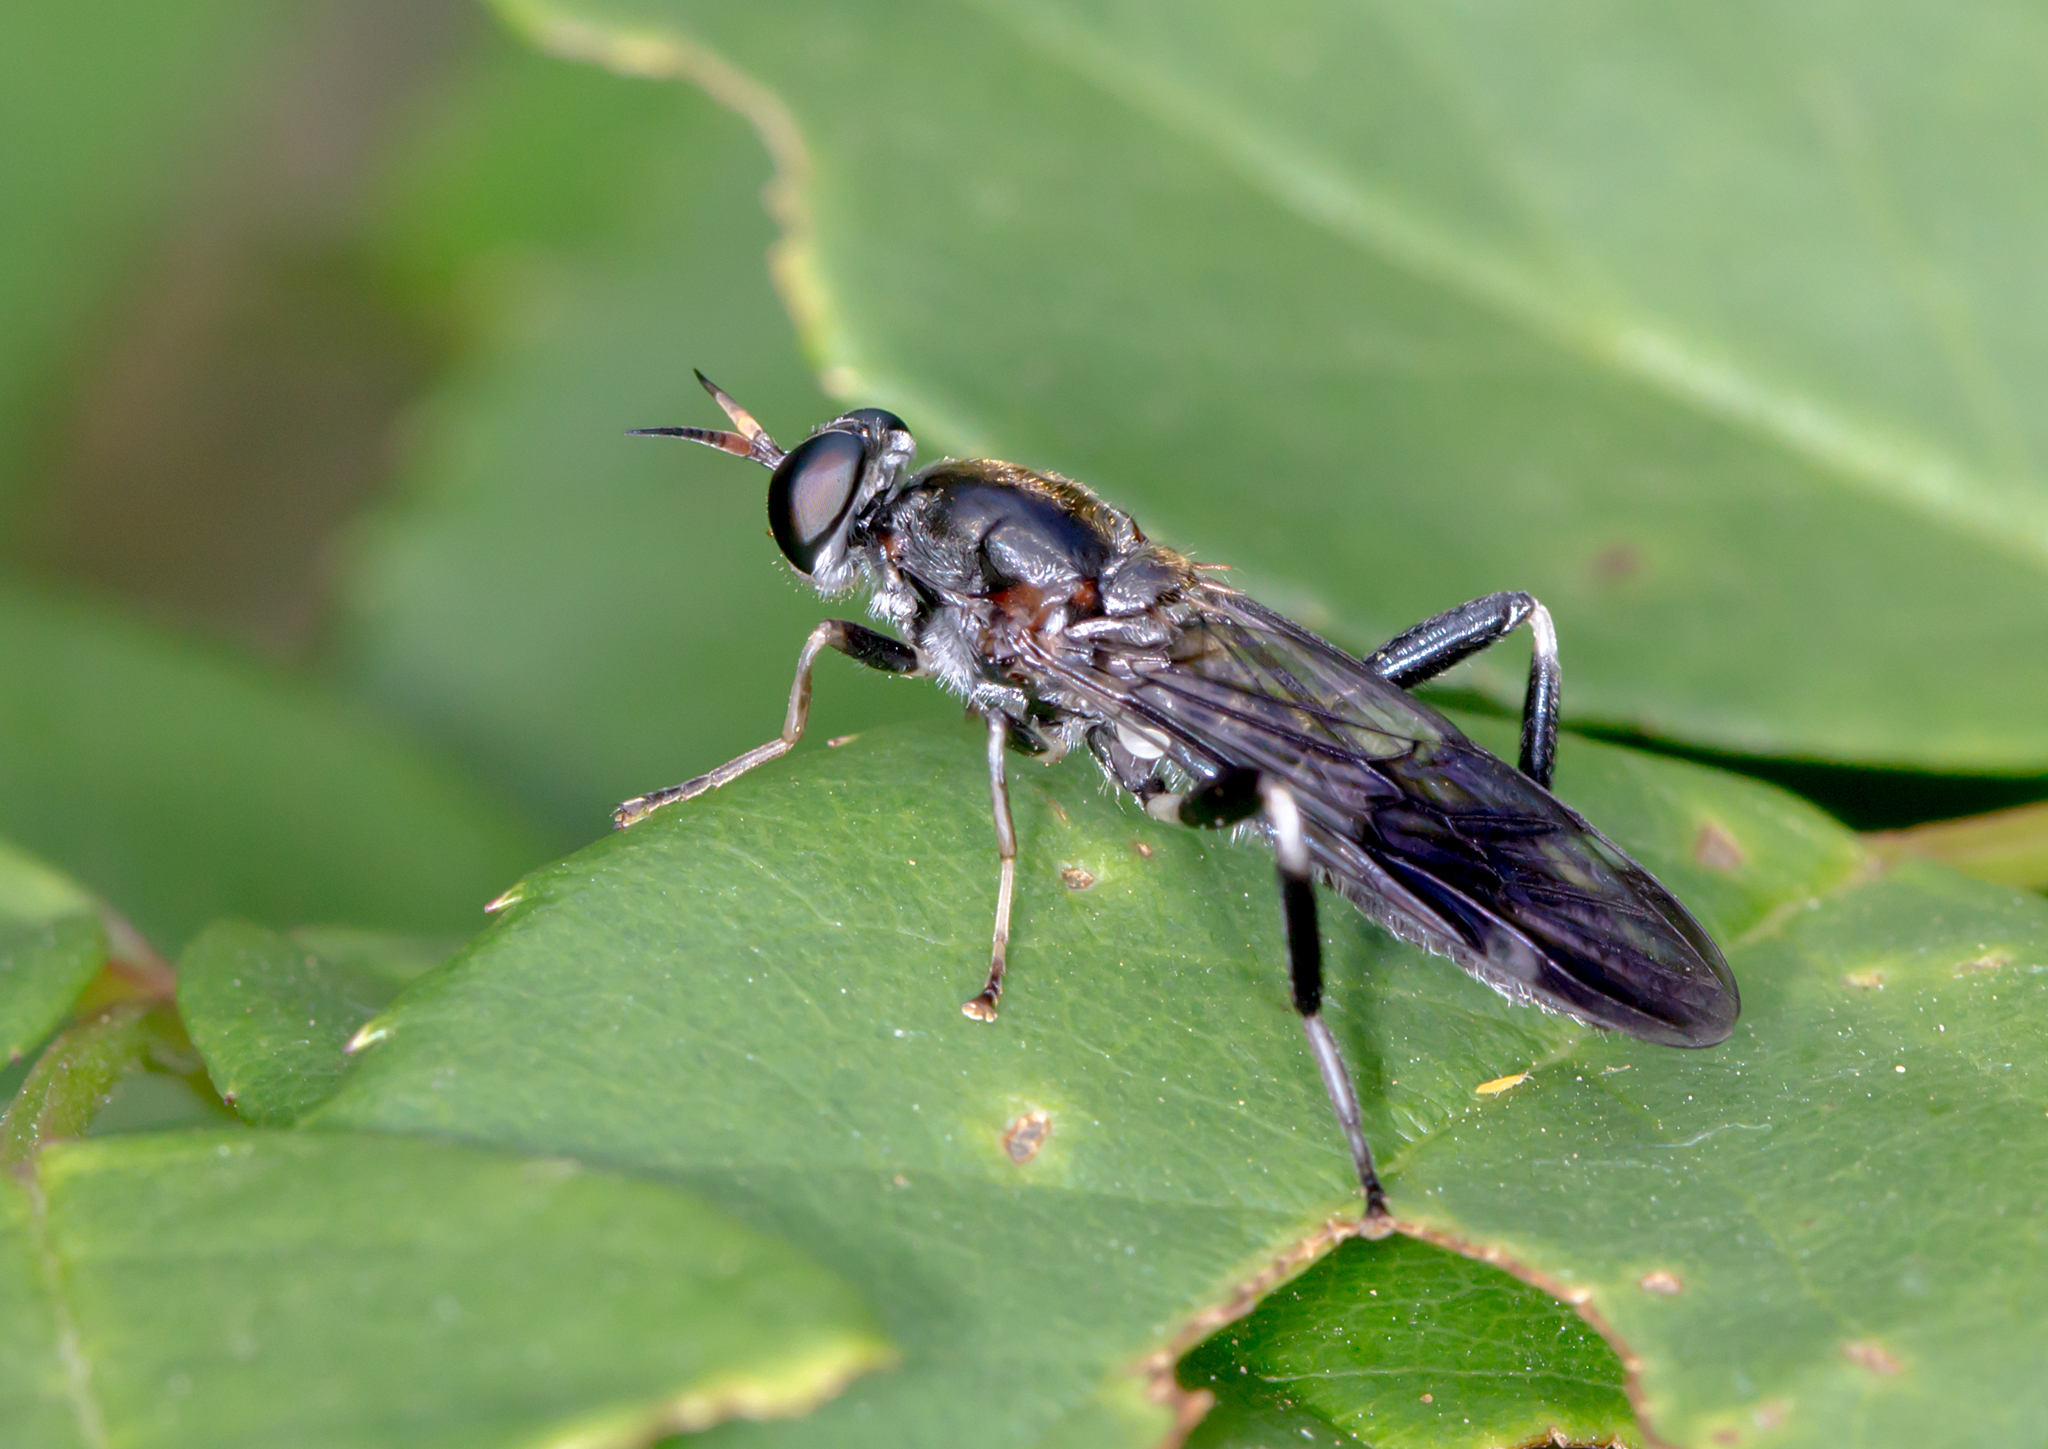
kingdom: Animalia
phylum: Arthropoda
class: Insecta
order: Diptera
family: Stratiomyidae
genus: Exaireta
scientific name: Exaireta spinigera
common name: Blue soldier fly
